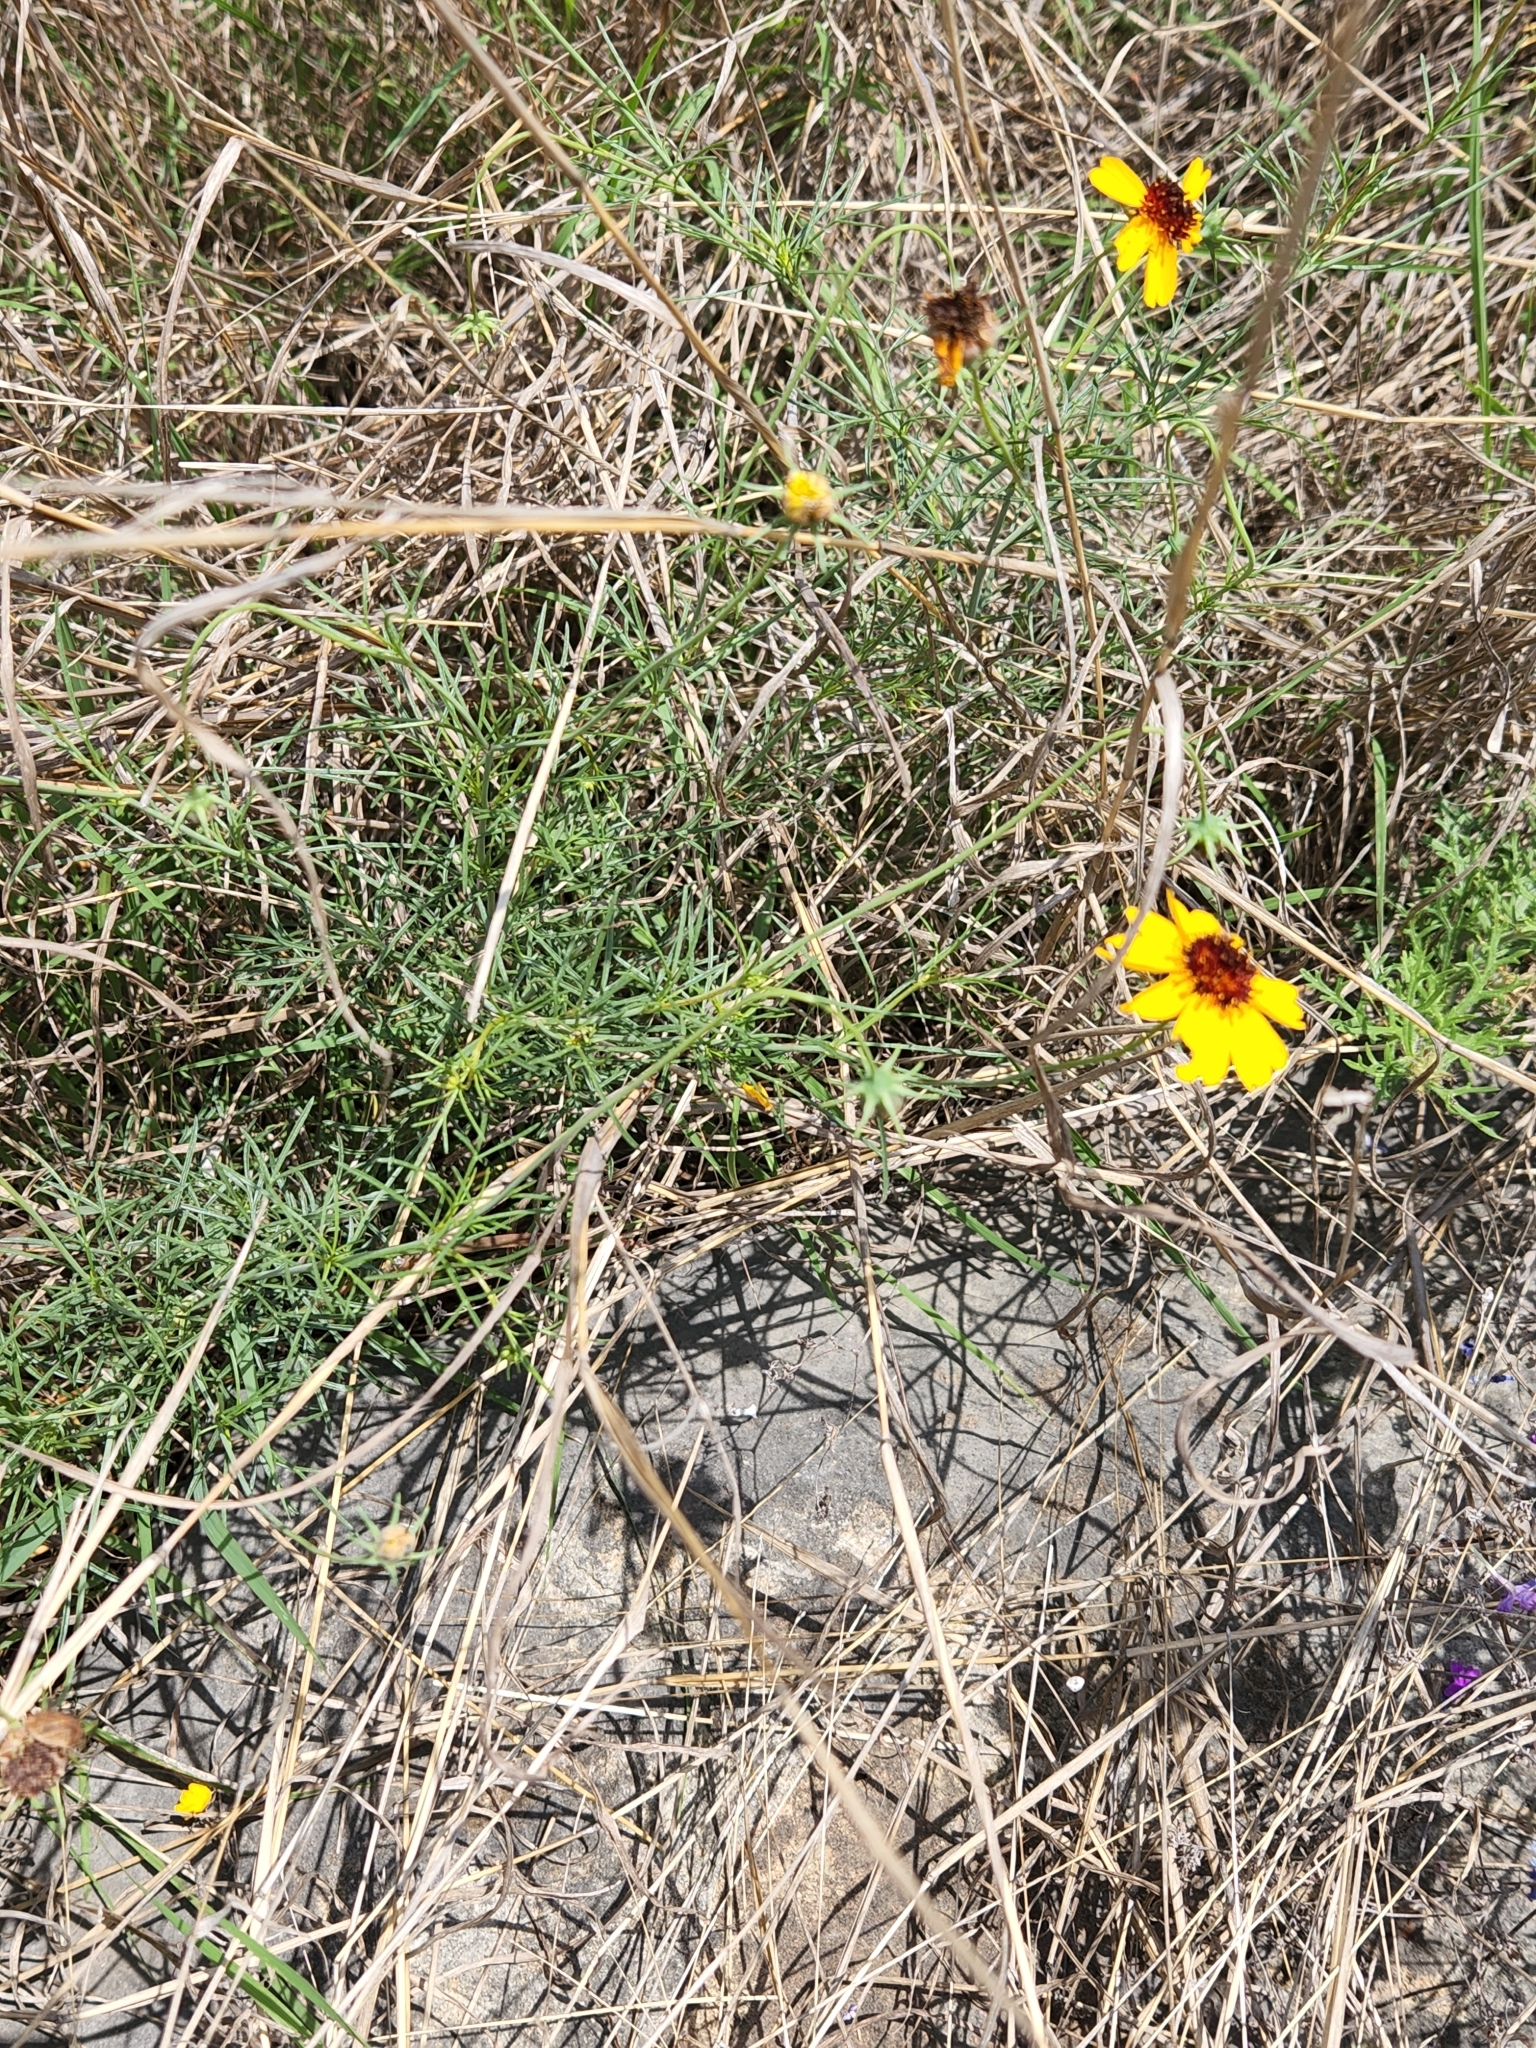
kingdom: Plantae
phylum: Tracheophyta
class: Magnoliopsida
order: Asterales
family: Asteraceae
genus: Thelesperma
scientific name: Thelesperma filifolium
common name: Stiff greenthread
